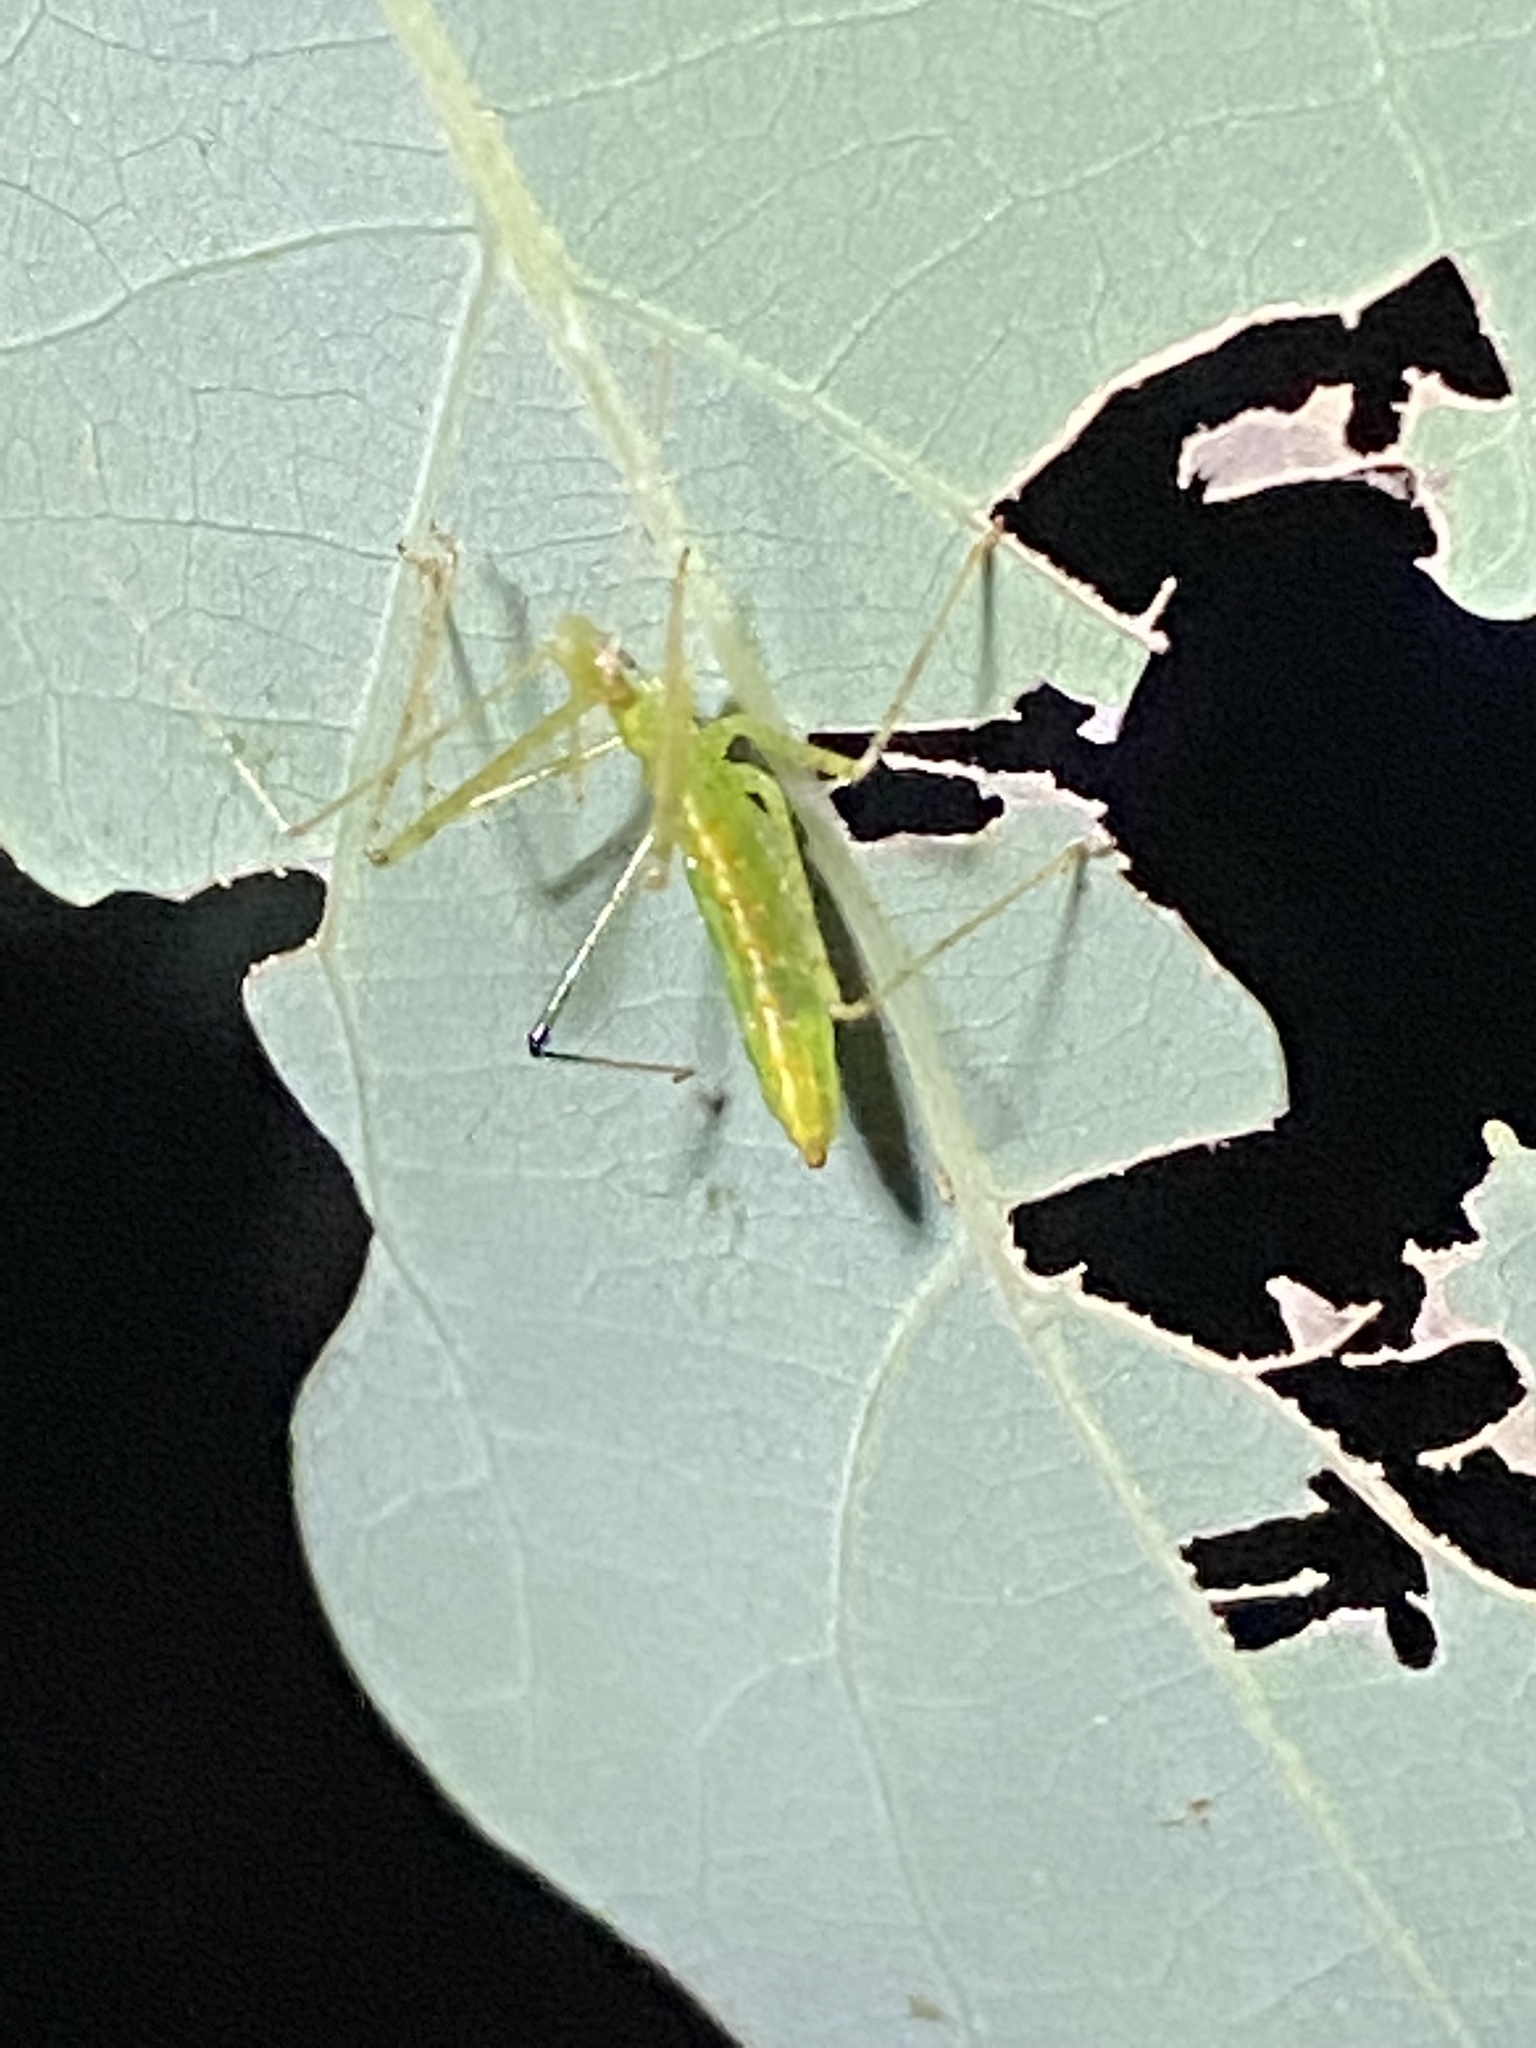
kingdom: Animalia
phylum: Arthropoda
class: Insecta
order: Hemiptera
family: Reduviidae
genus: Zelus
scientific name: Zelus luridus
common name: Pale green assassin bug
